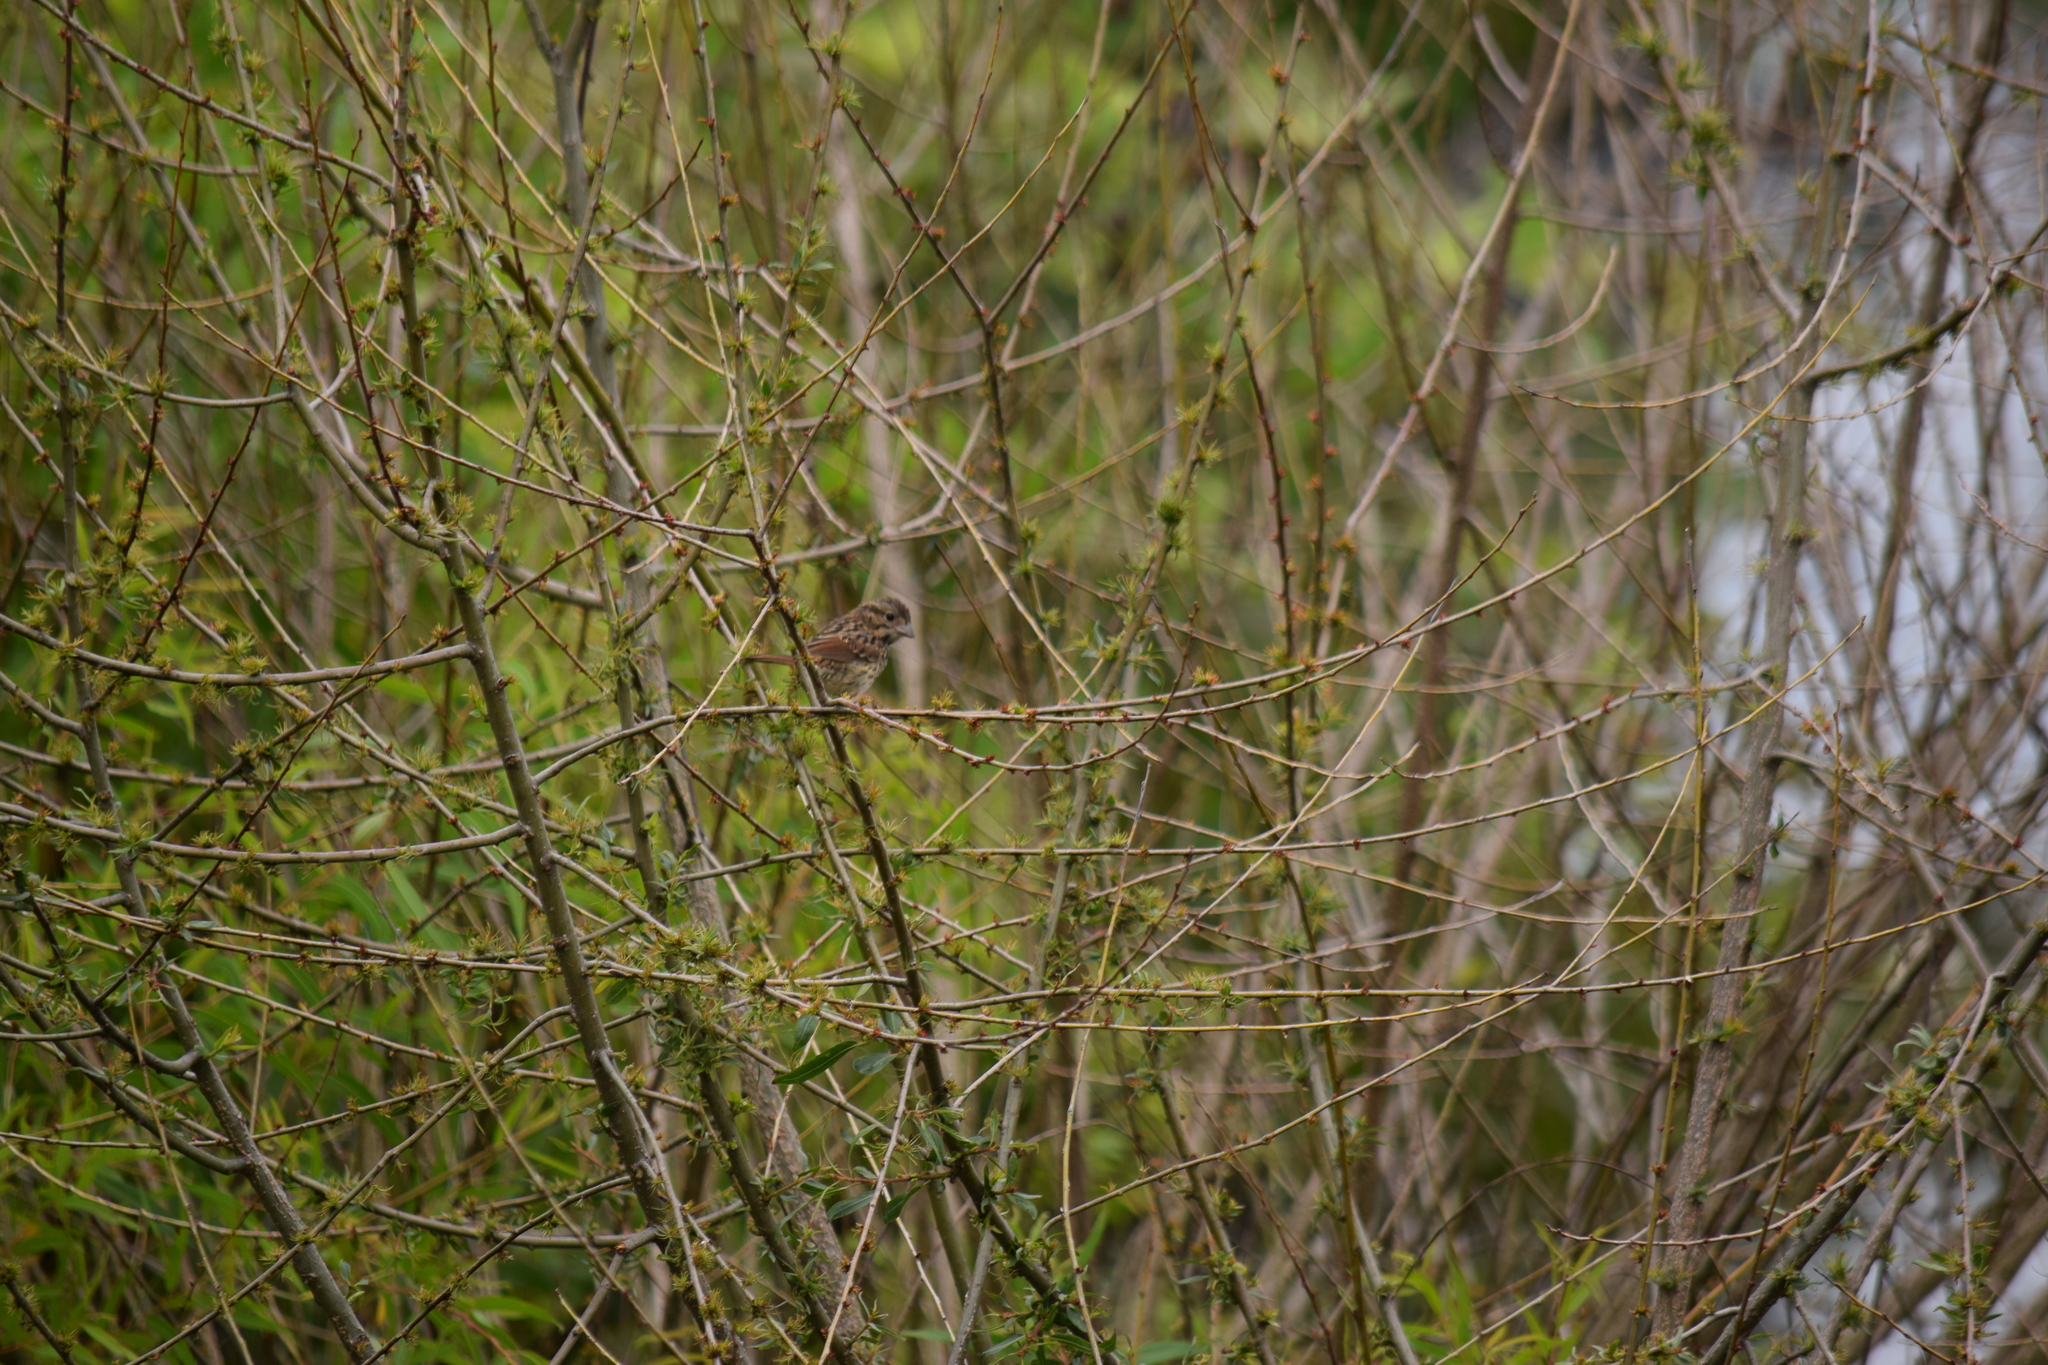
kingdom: Animalia
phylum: Chordata
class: Aves
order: Passeriformes
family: Passerellidae
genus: Melospiza
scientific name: Melospiza melodia
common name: Song sparrow
